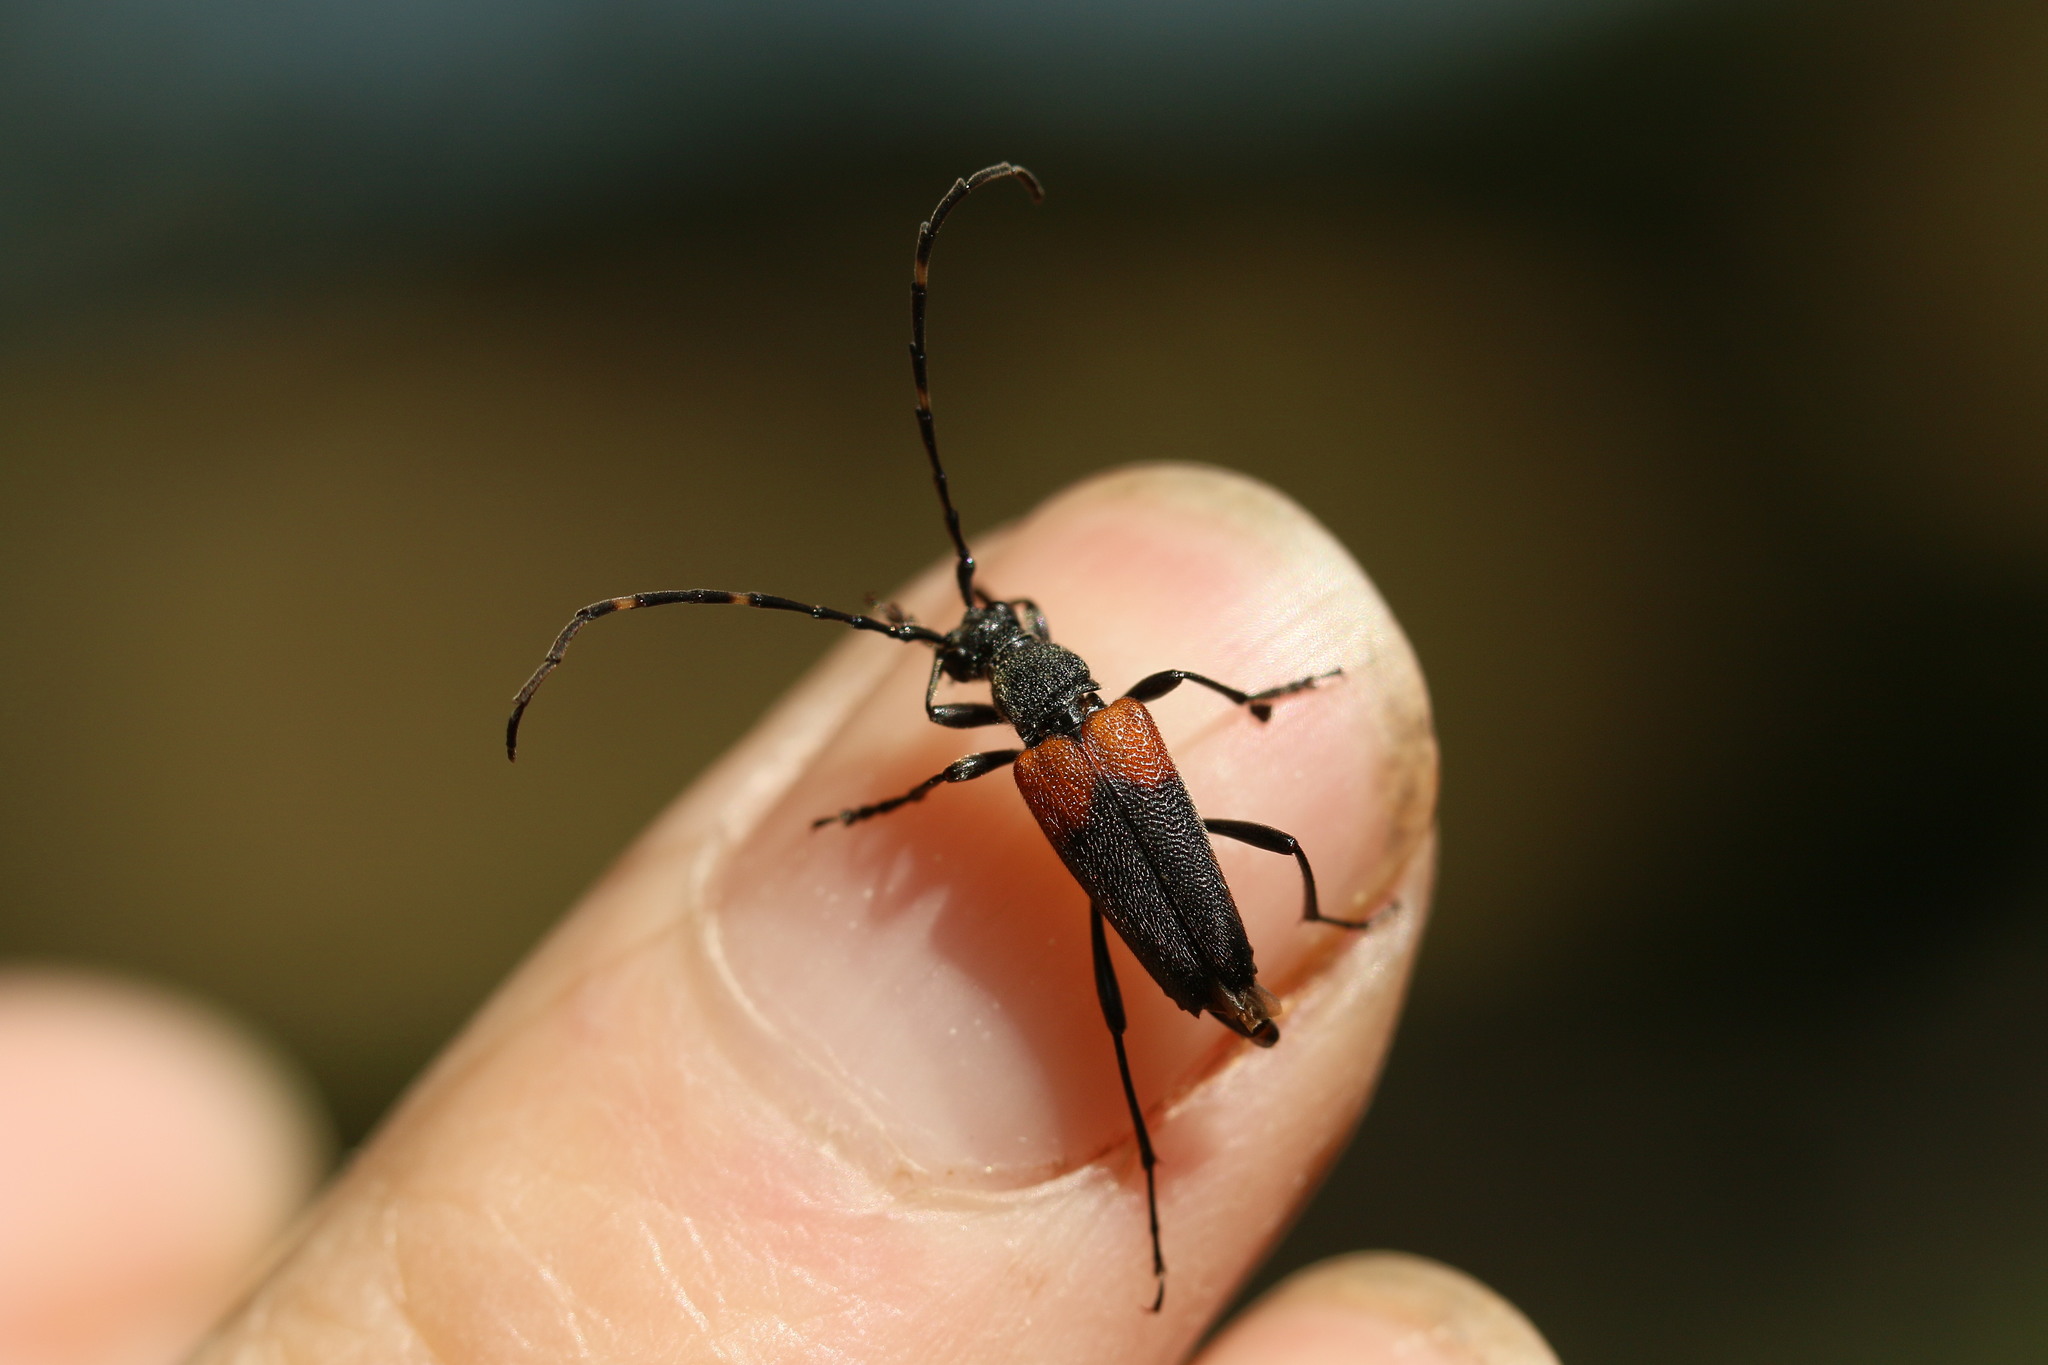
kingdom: Animalia
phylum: Arthropoda
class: Insecta
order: Coleoptera
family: Cerambycidae
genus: Stictoleptura
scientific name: Stictoleptura canadensis
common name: Red-shouldered pine borer
